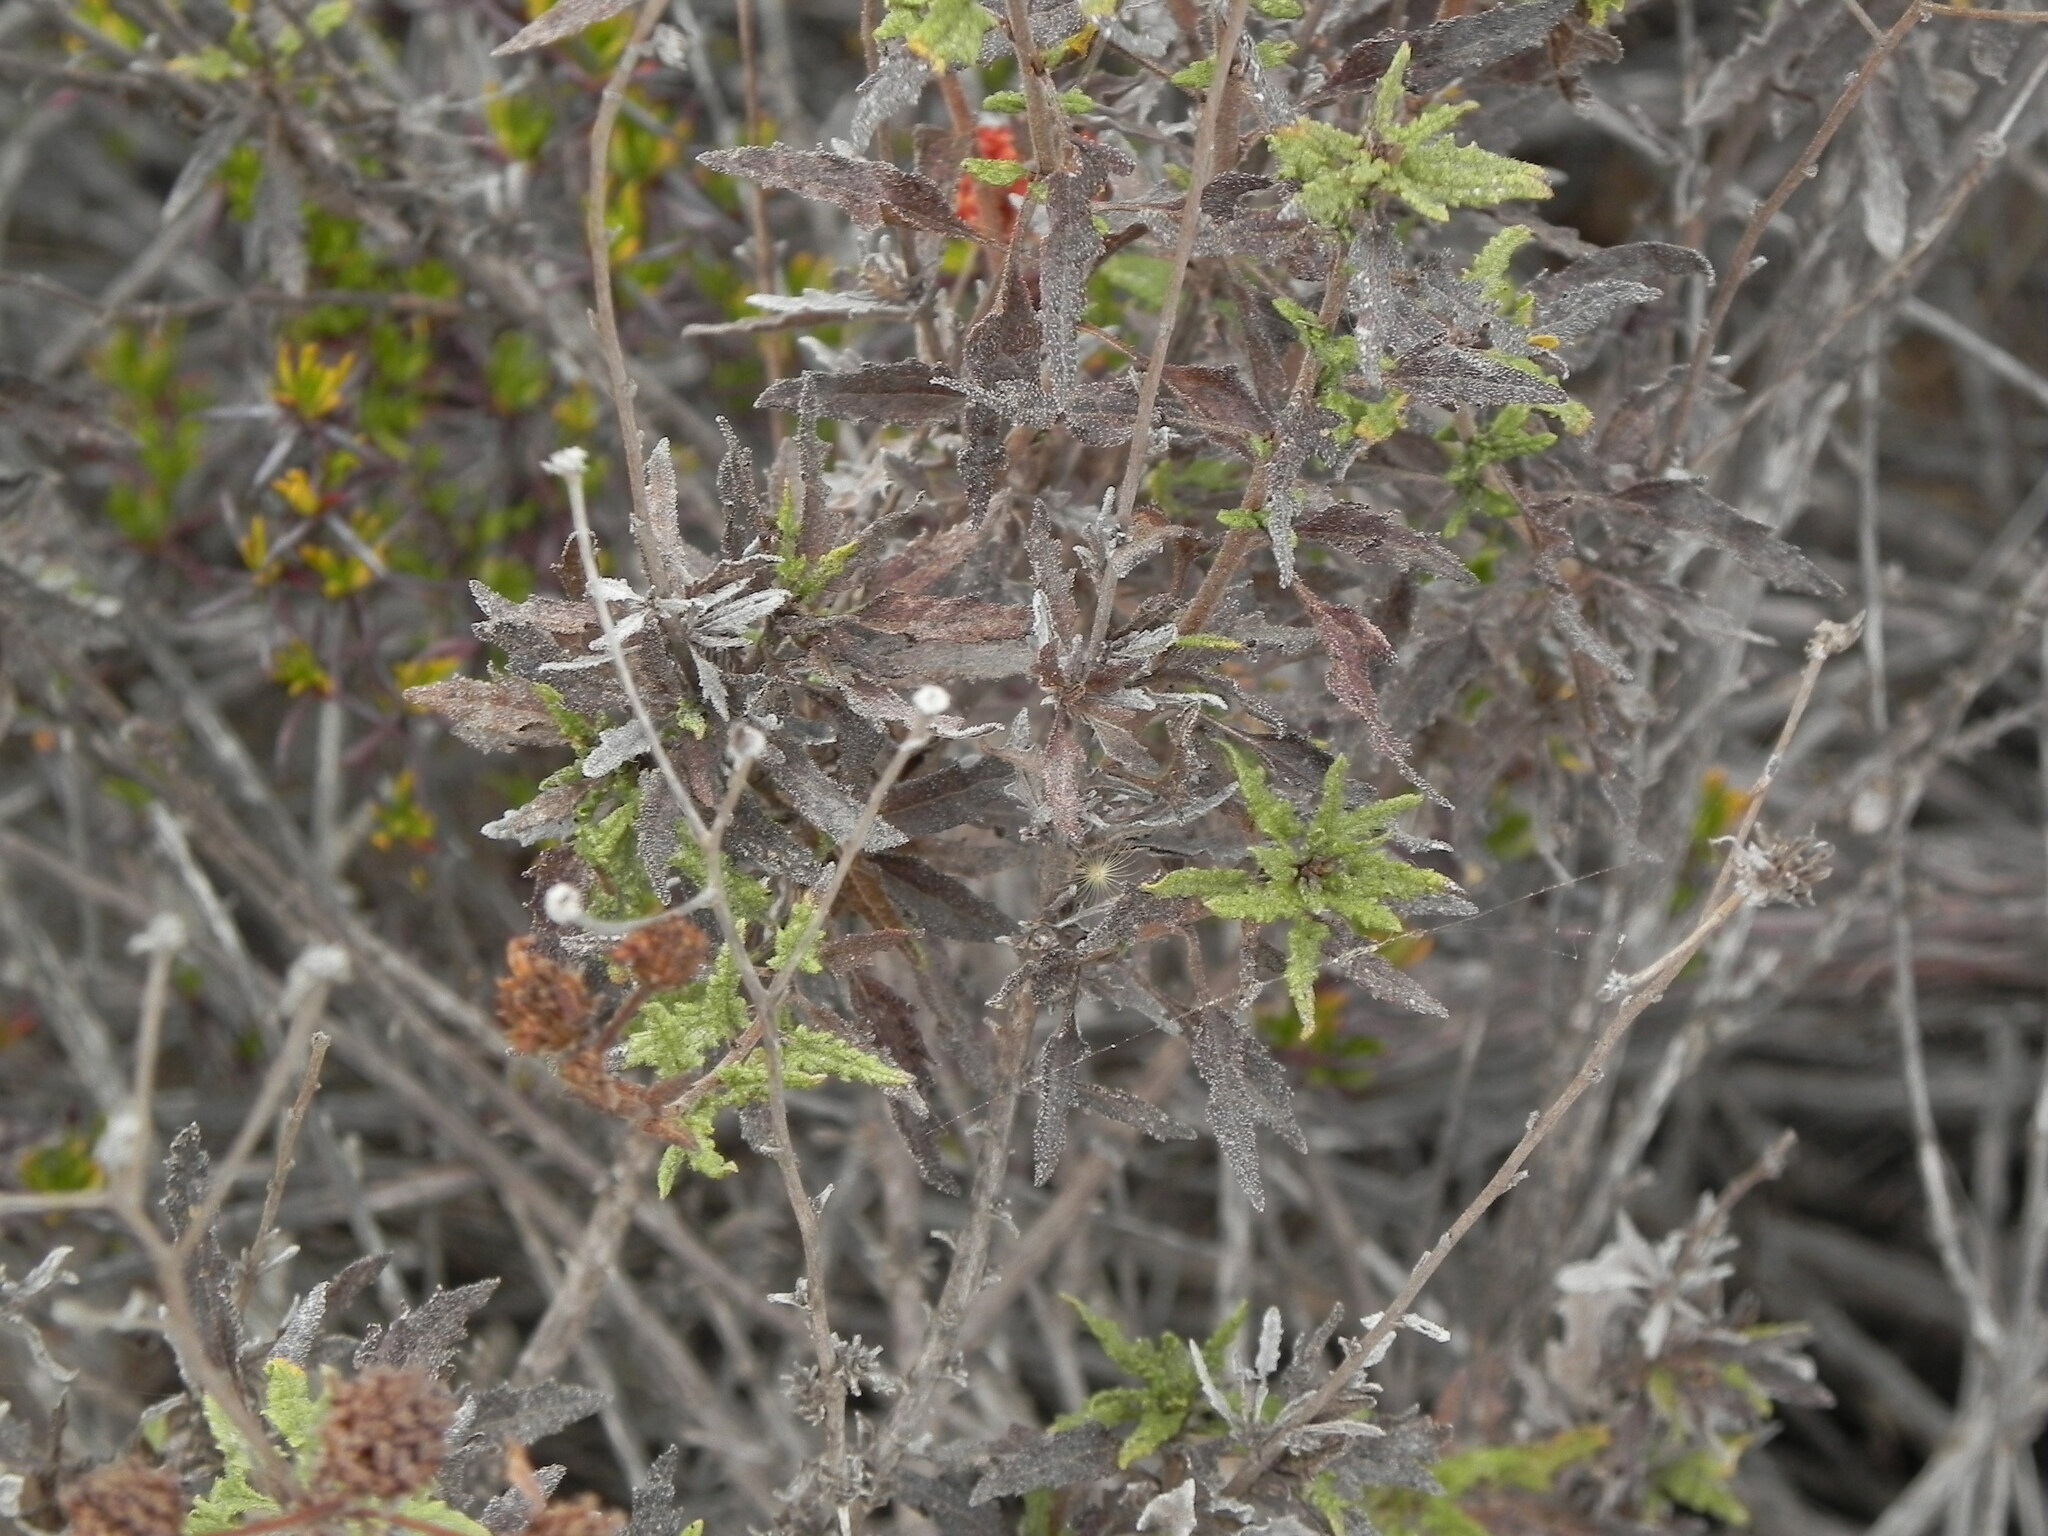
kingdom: Plantae
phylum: Tracheophyta
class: Magnoliopsida
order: Asterales
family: Asteraceae
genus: Bahiopsis
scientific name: Bahiopsis laciniata
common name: San diego county viguiera
